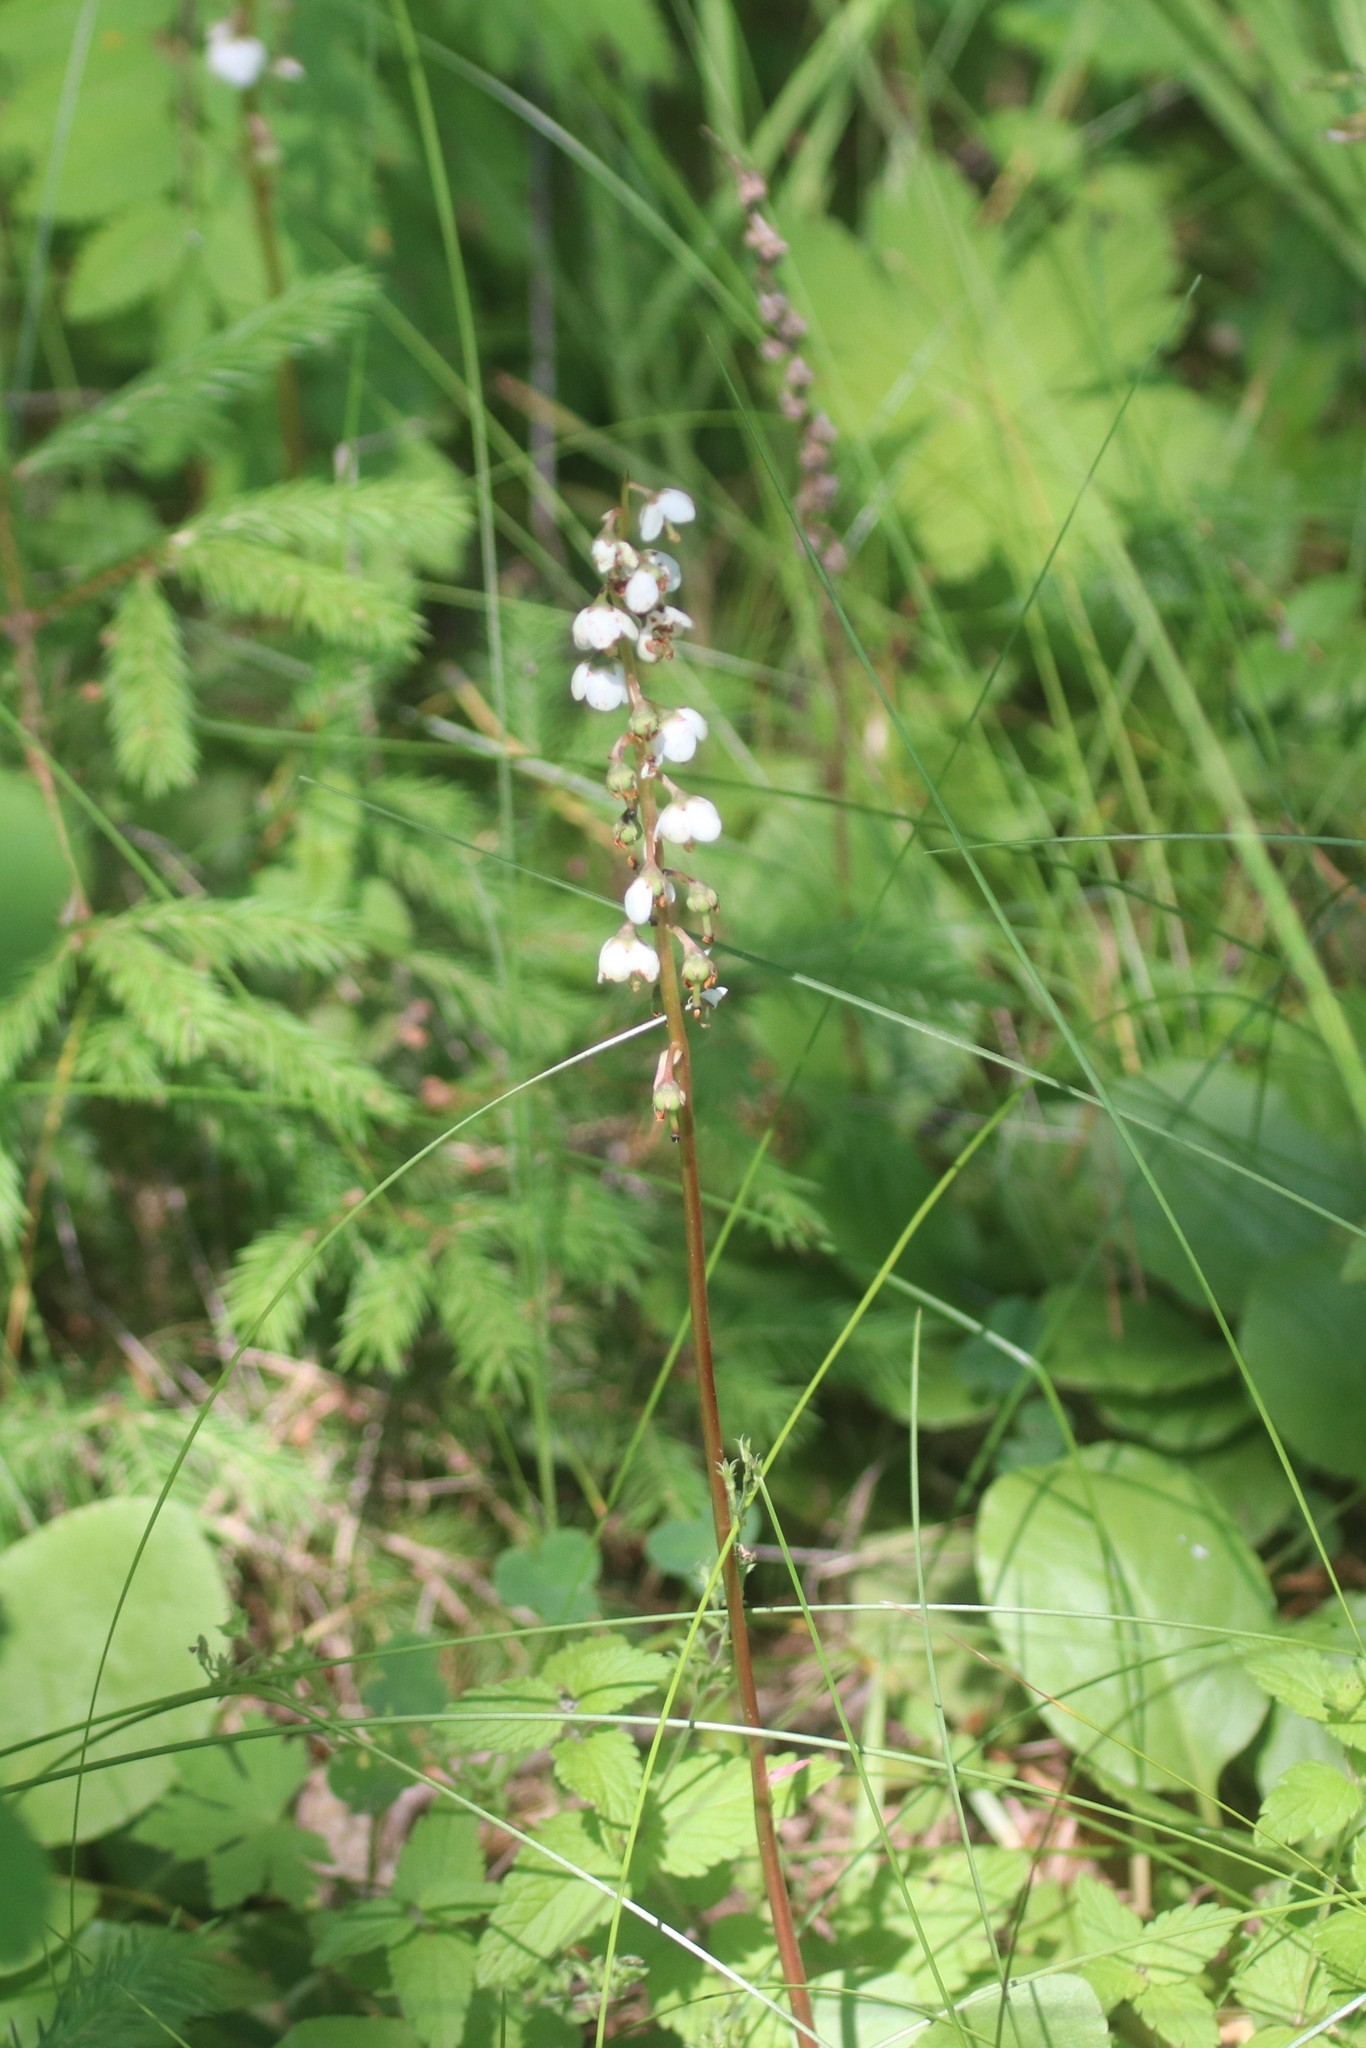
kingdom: Plantae
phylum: Tracheophyta
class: Magnoliopsida
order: Ericales
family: Ericaceae
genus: Pyrola
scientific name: Pyrola media
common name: Intermediate wintergreen
